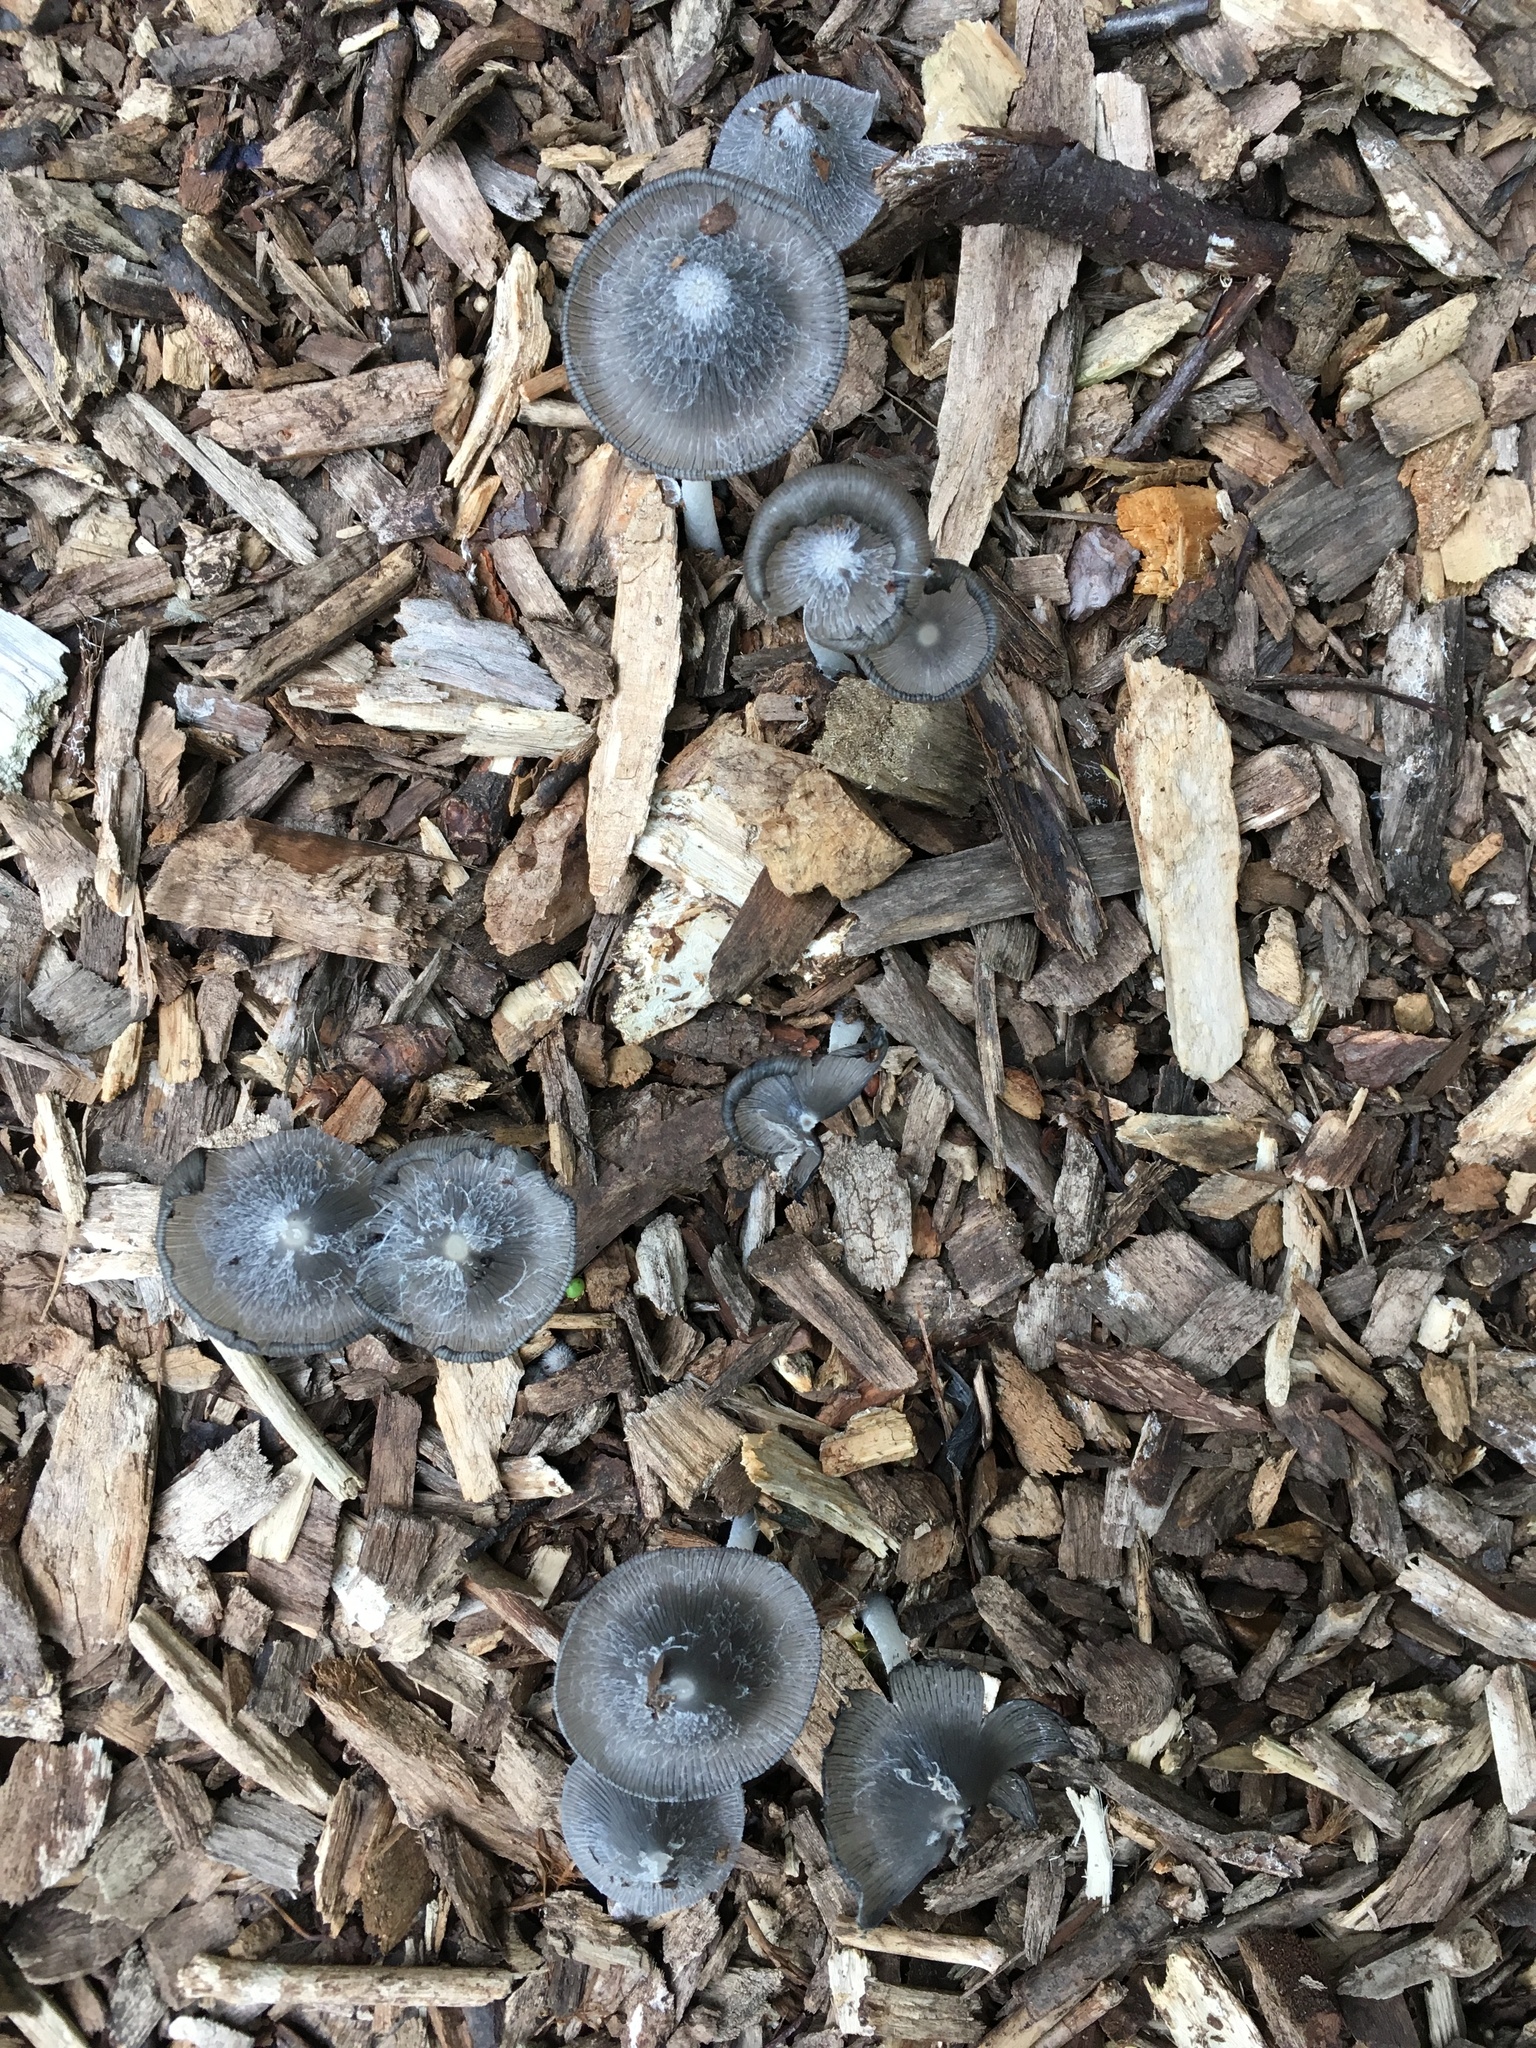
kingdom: Fungi
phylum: Basidiomycota
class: Agaricomycetes
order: Agaricales
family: Psathyrellaceae
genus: Coprinopsis
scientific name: Coprinopsis lagopus
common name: Hare'sfoot inkcap
